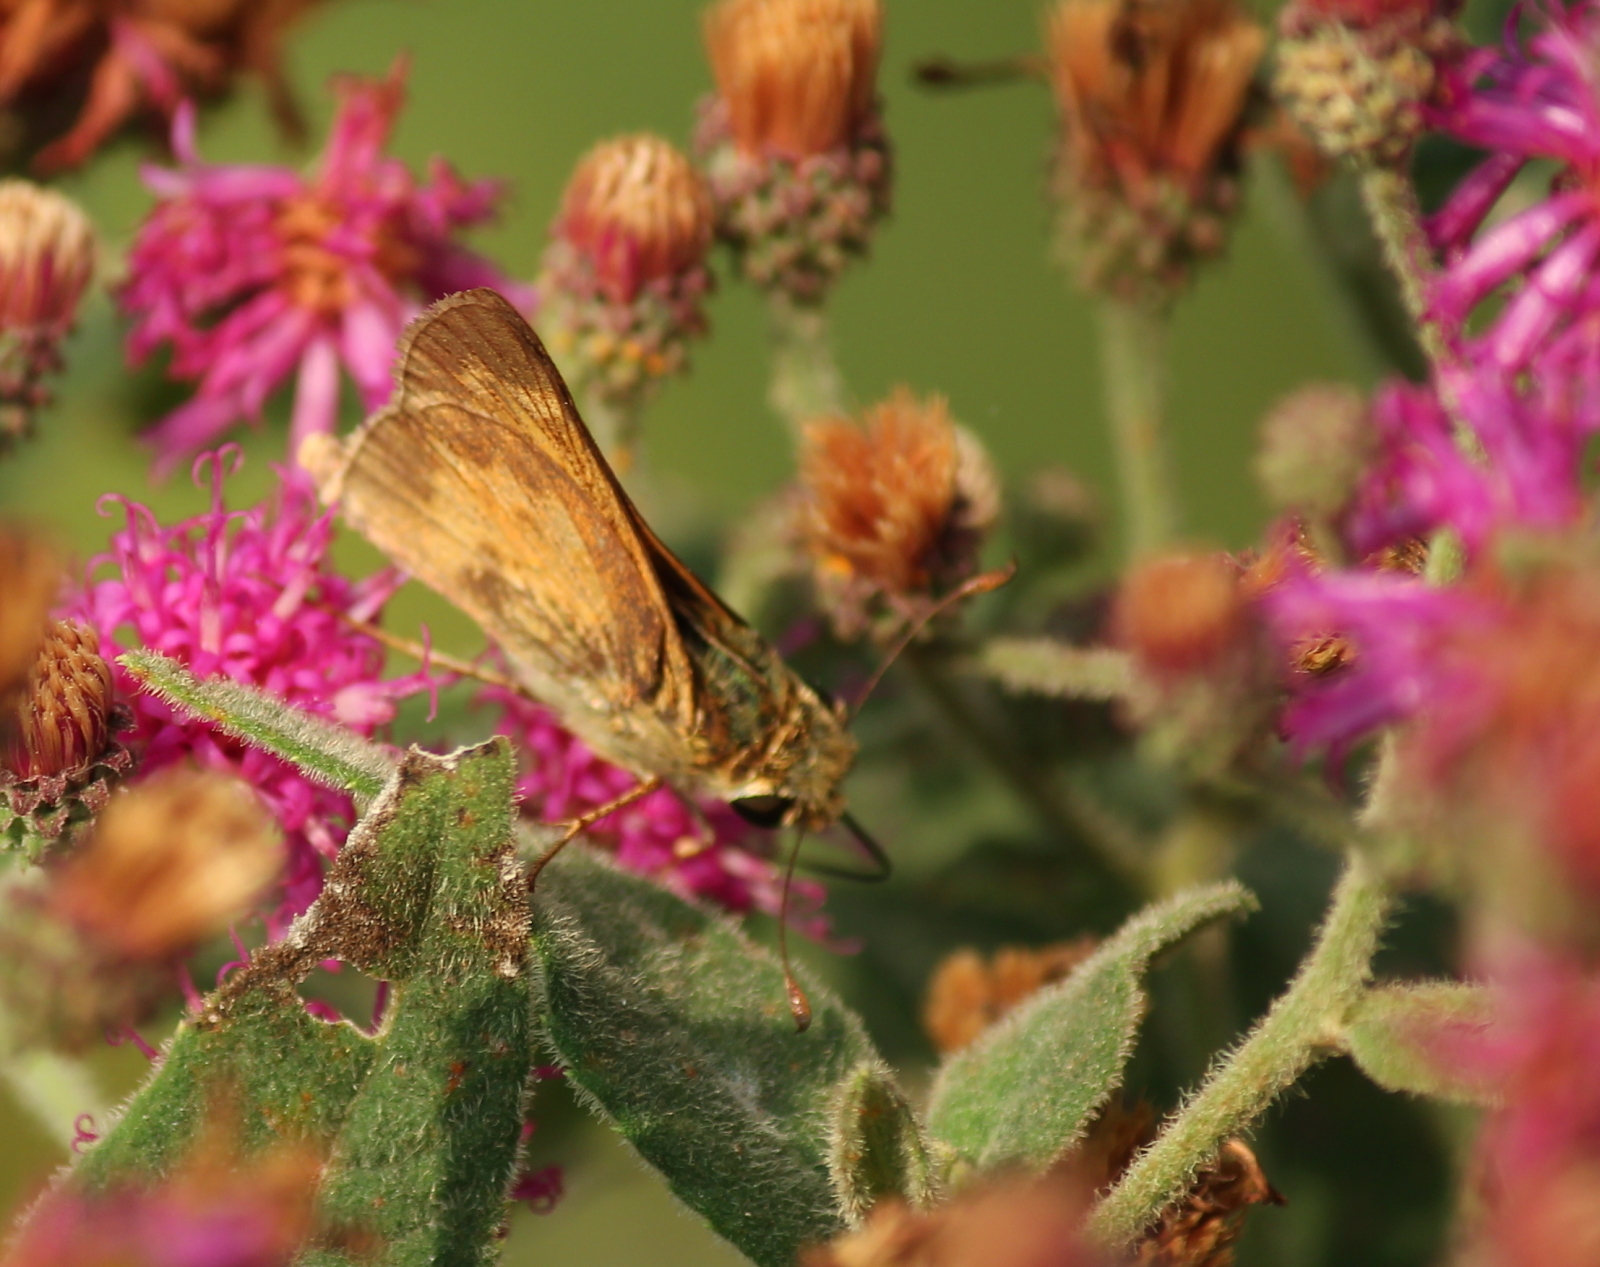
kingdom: Animalia
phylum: Arthropoda
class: Insecta
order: Lepidoptera
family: Hesperiidae
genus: Atalopedes
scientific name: Atalopedes
